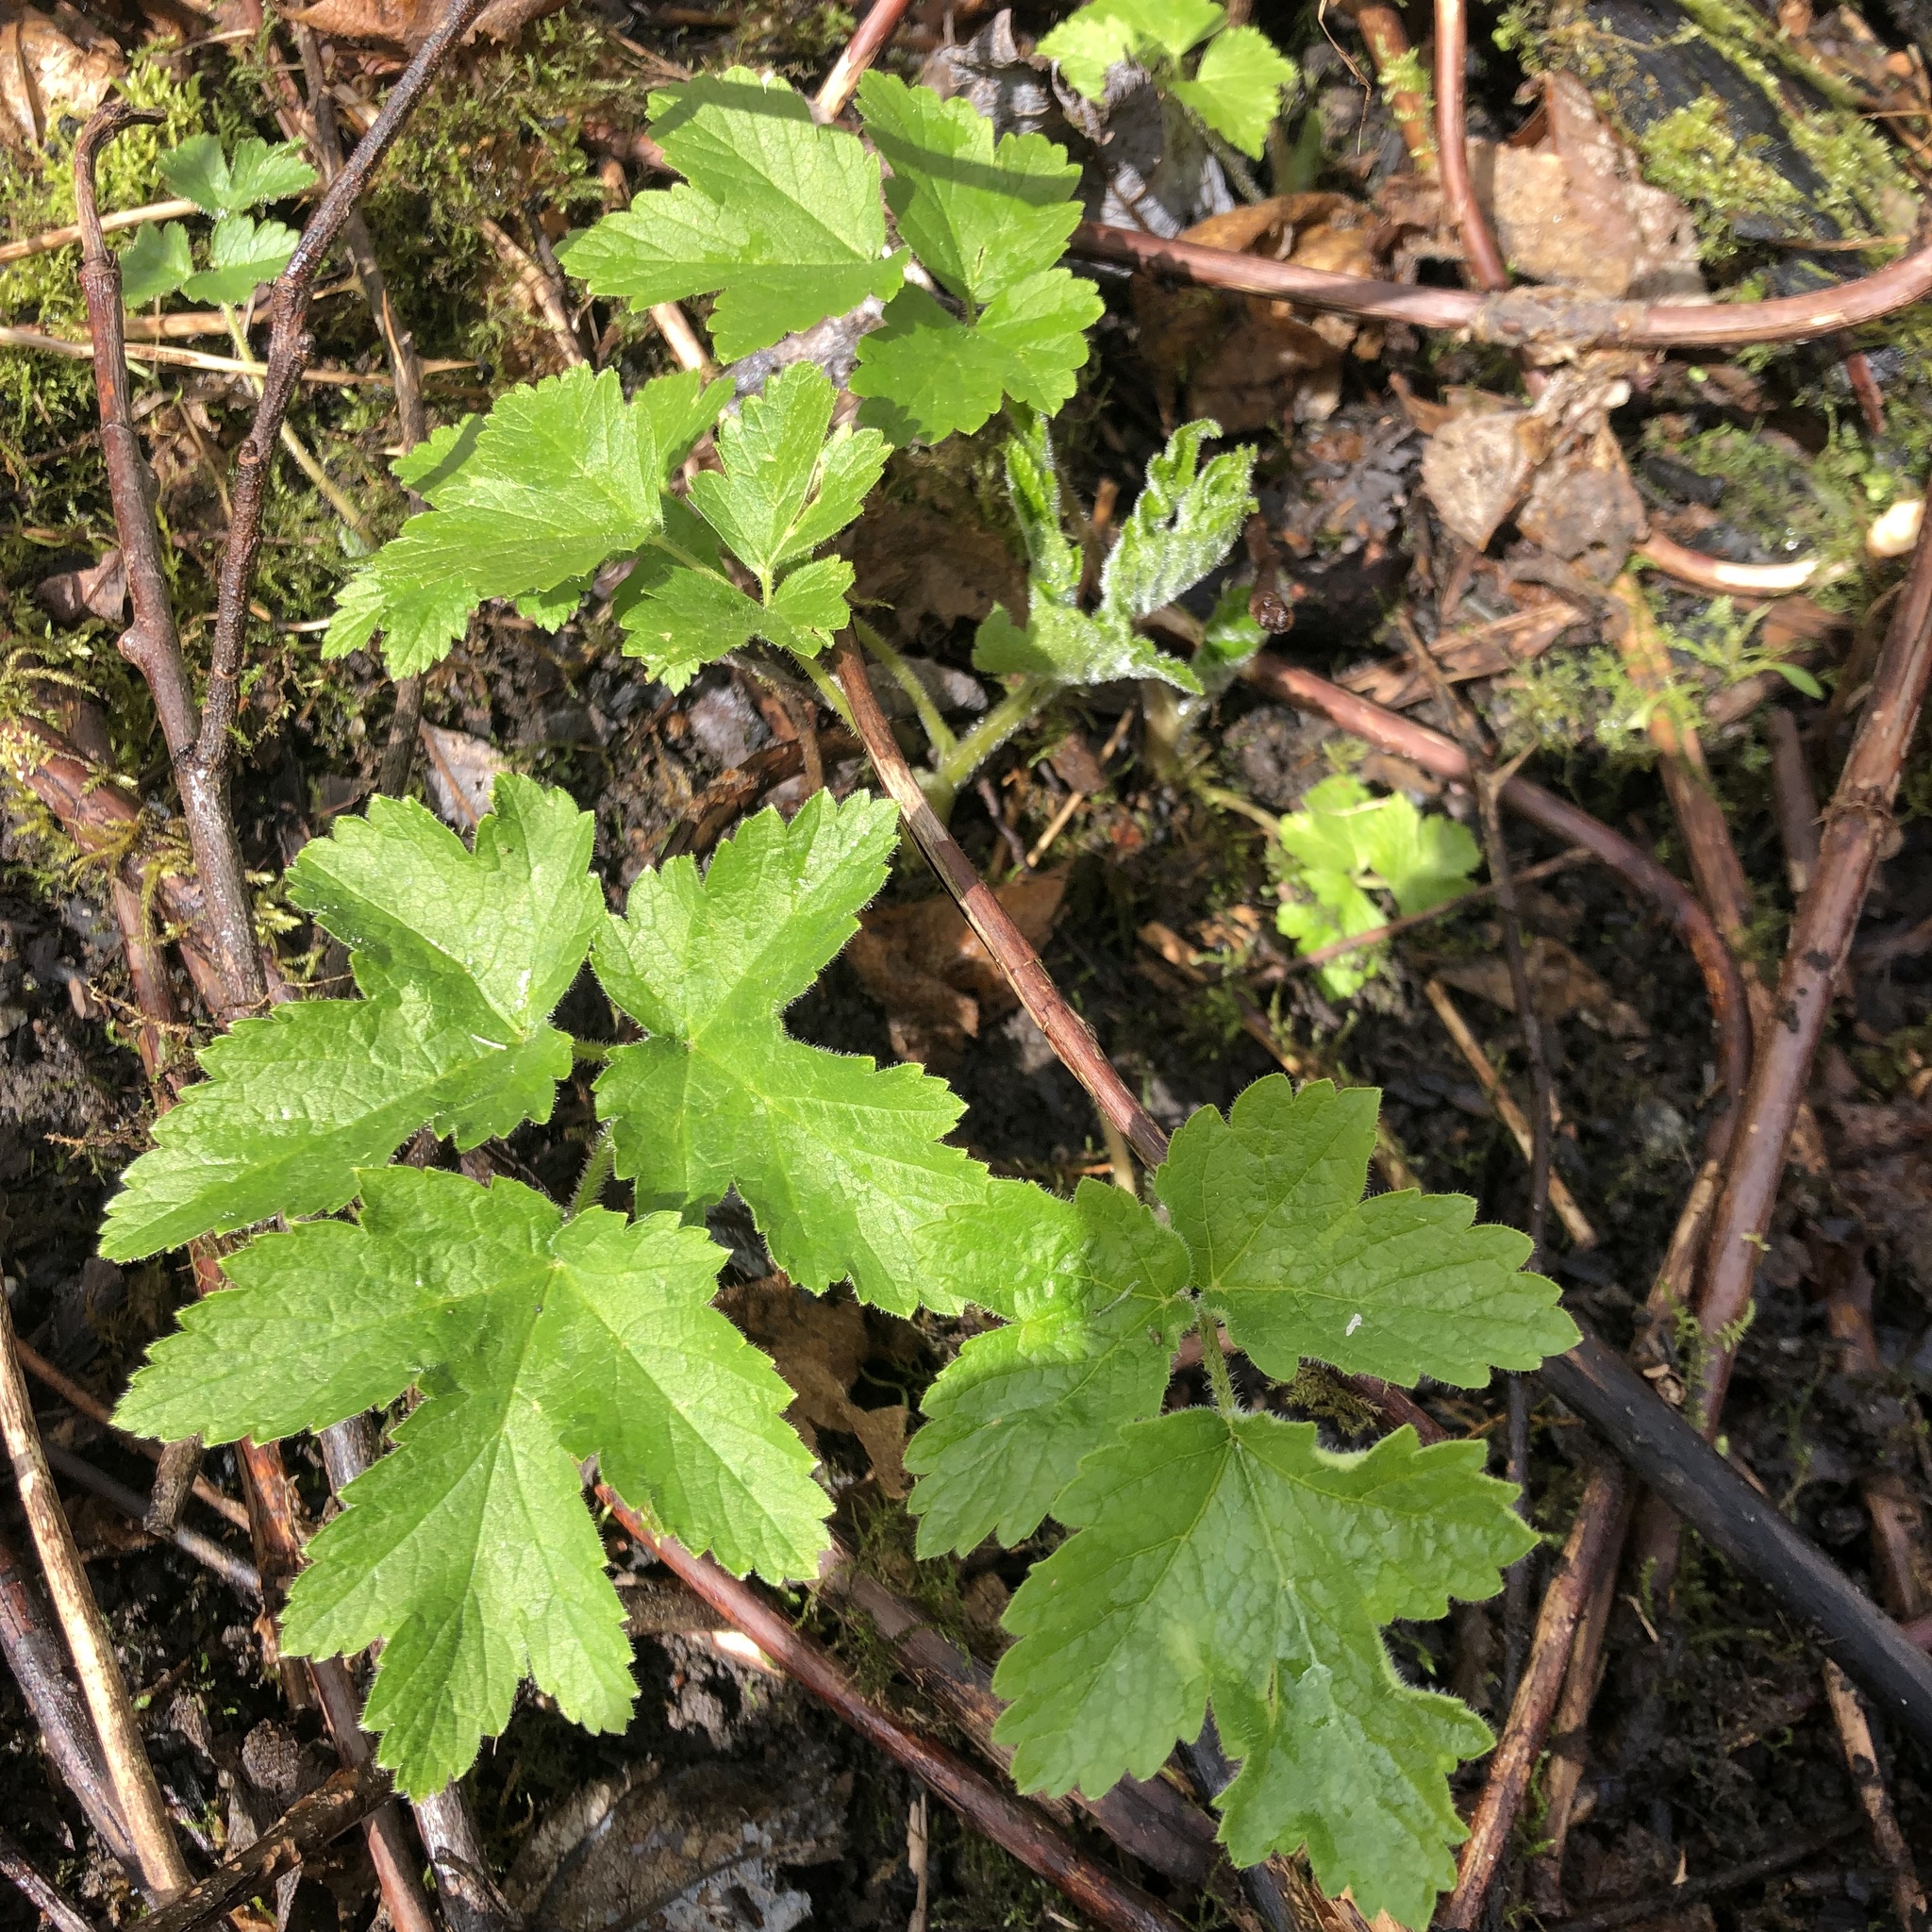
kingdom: Plantae
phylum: Tracheophyta
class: Magnoliopsida
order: Apiales
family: Apiaceae
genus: Heracleum
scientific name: Heracleum maximum
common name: American cow parsnip
